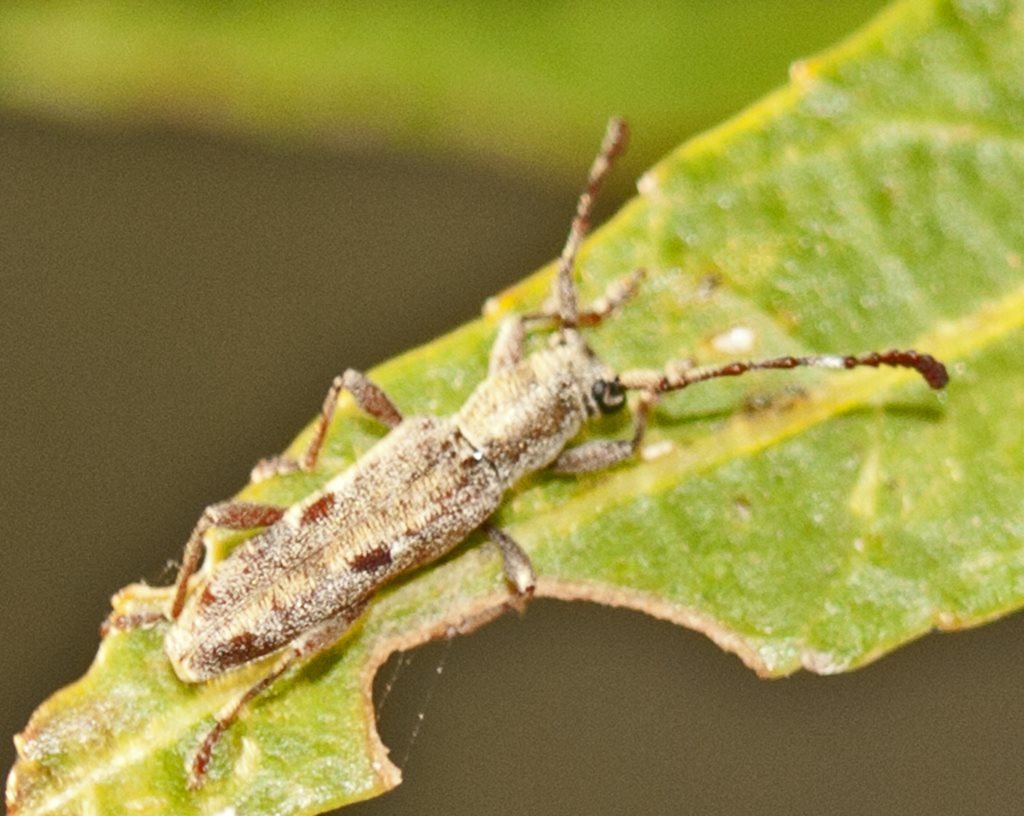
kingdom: Animalia
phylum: Arthropoda
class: Insecta
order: Coleoptera
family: Cerambycidae
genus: Pempsamacra
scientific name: Pempsamacra tillides
